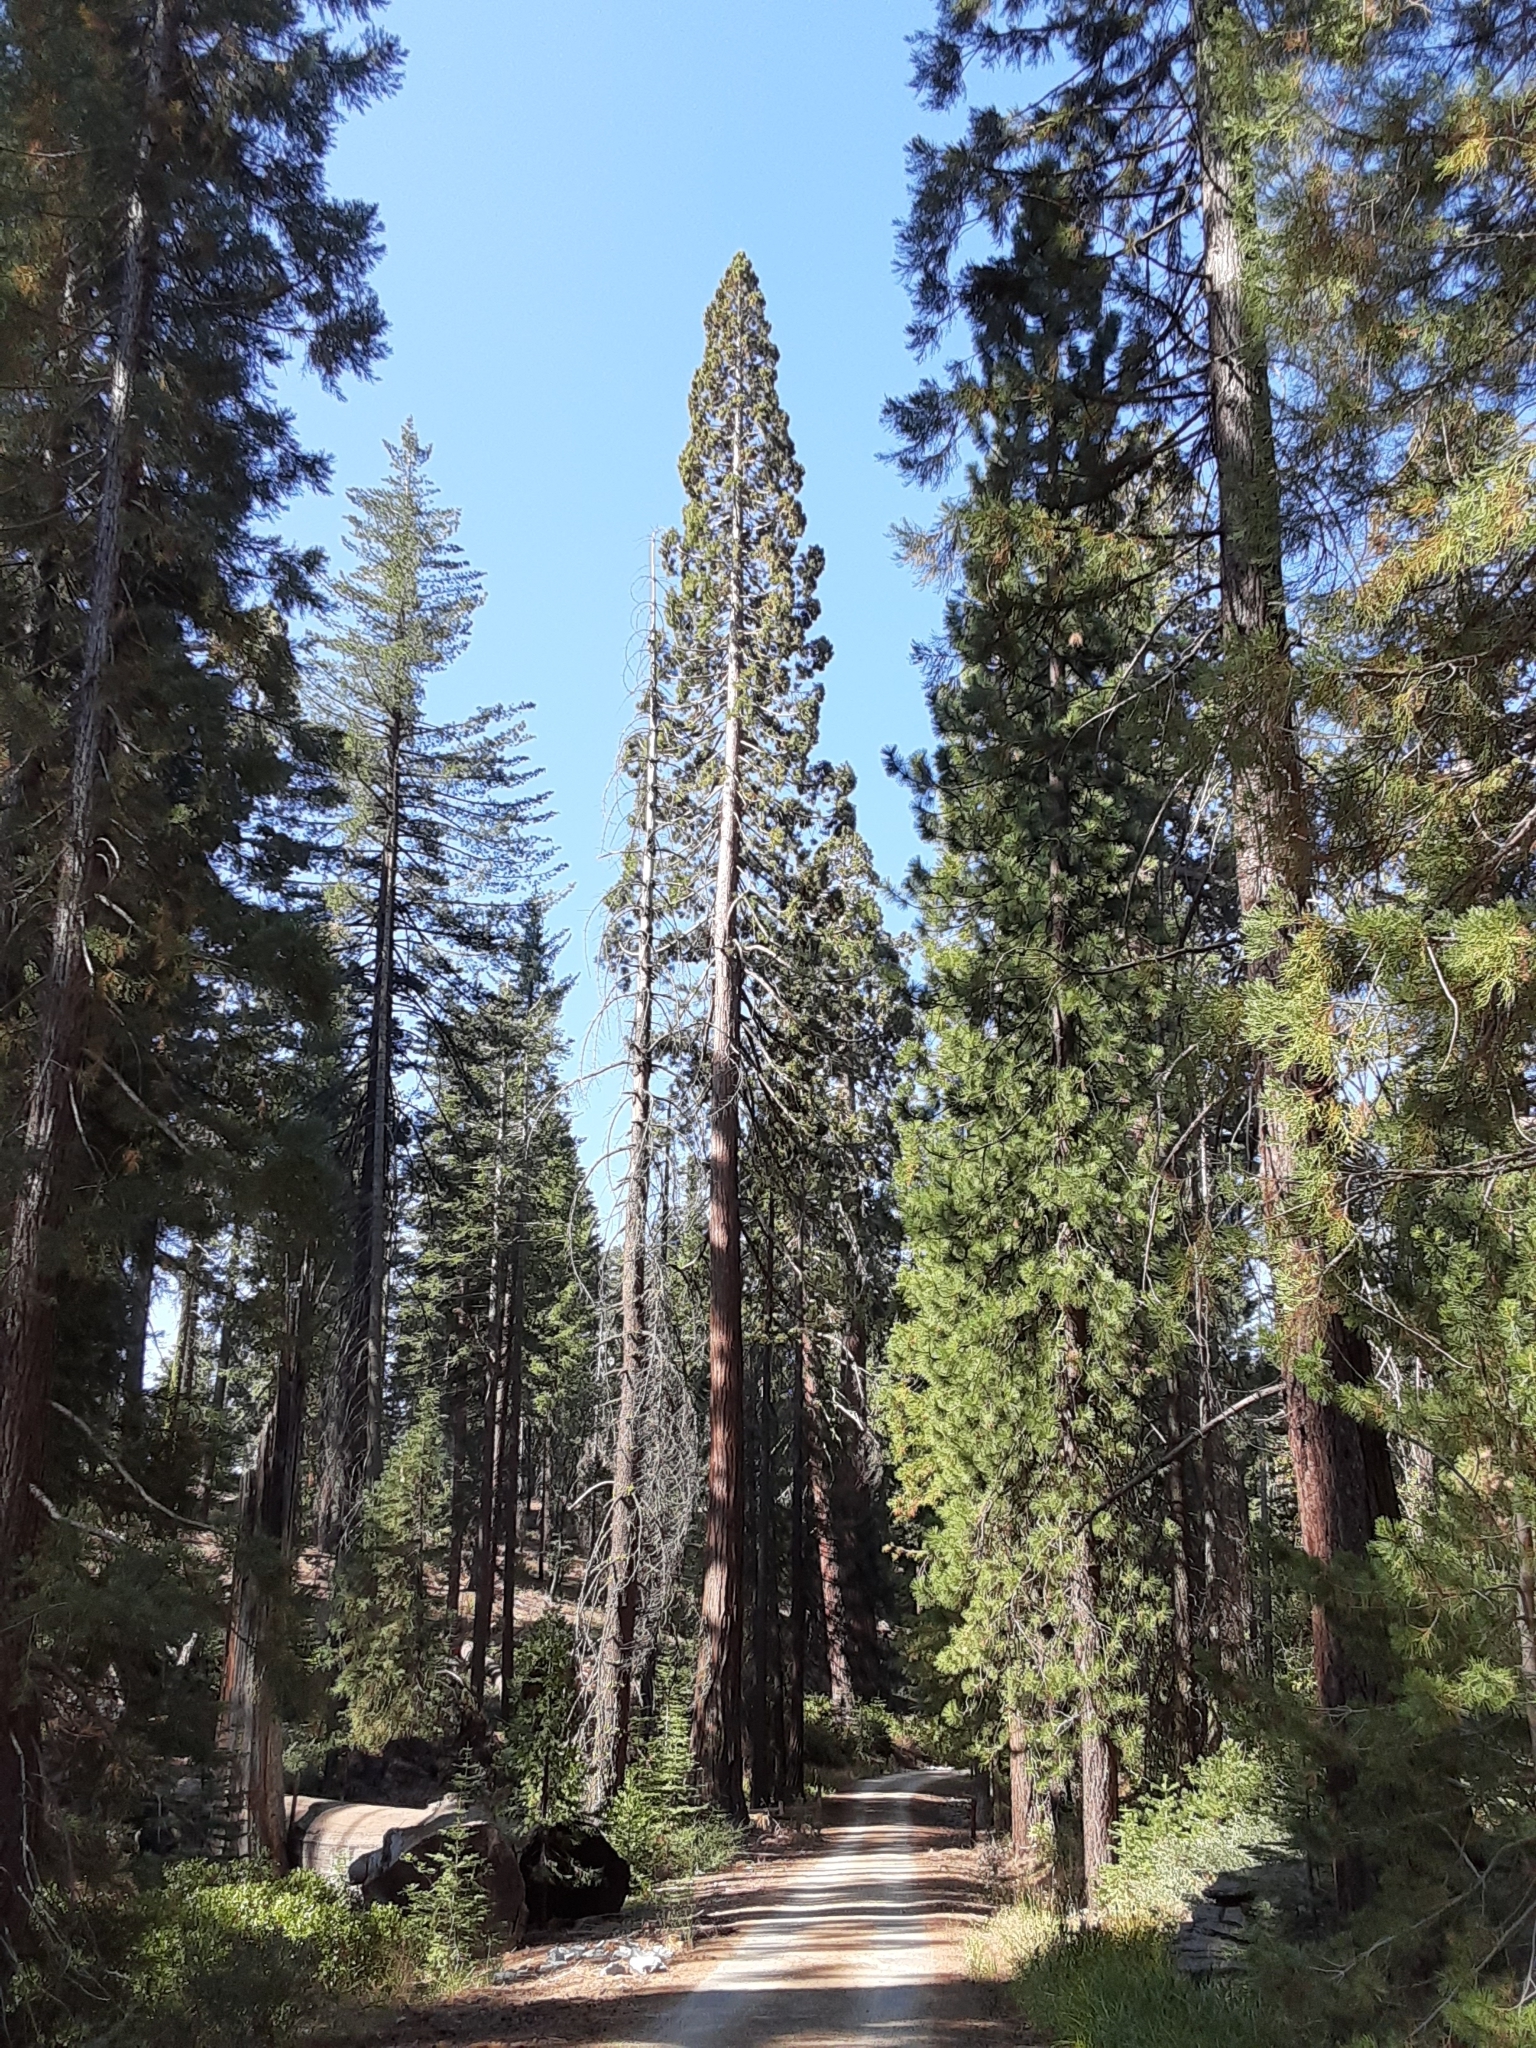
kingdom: Plantae
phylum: Tracheophyta
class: Pinopsida
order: Pinales
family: Cupressaceae
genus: Sequoiadendron
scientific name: Sequoiadendron giganteum
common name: Wellingtonia
